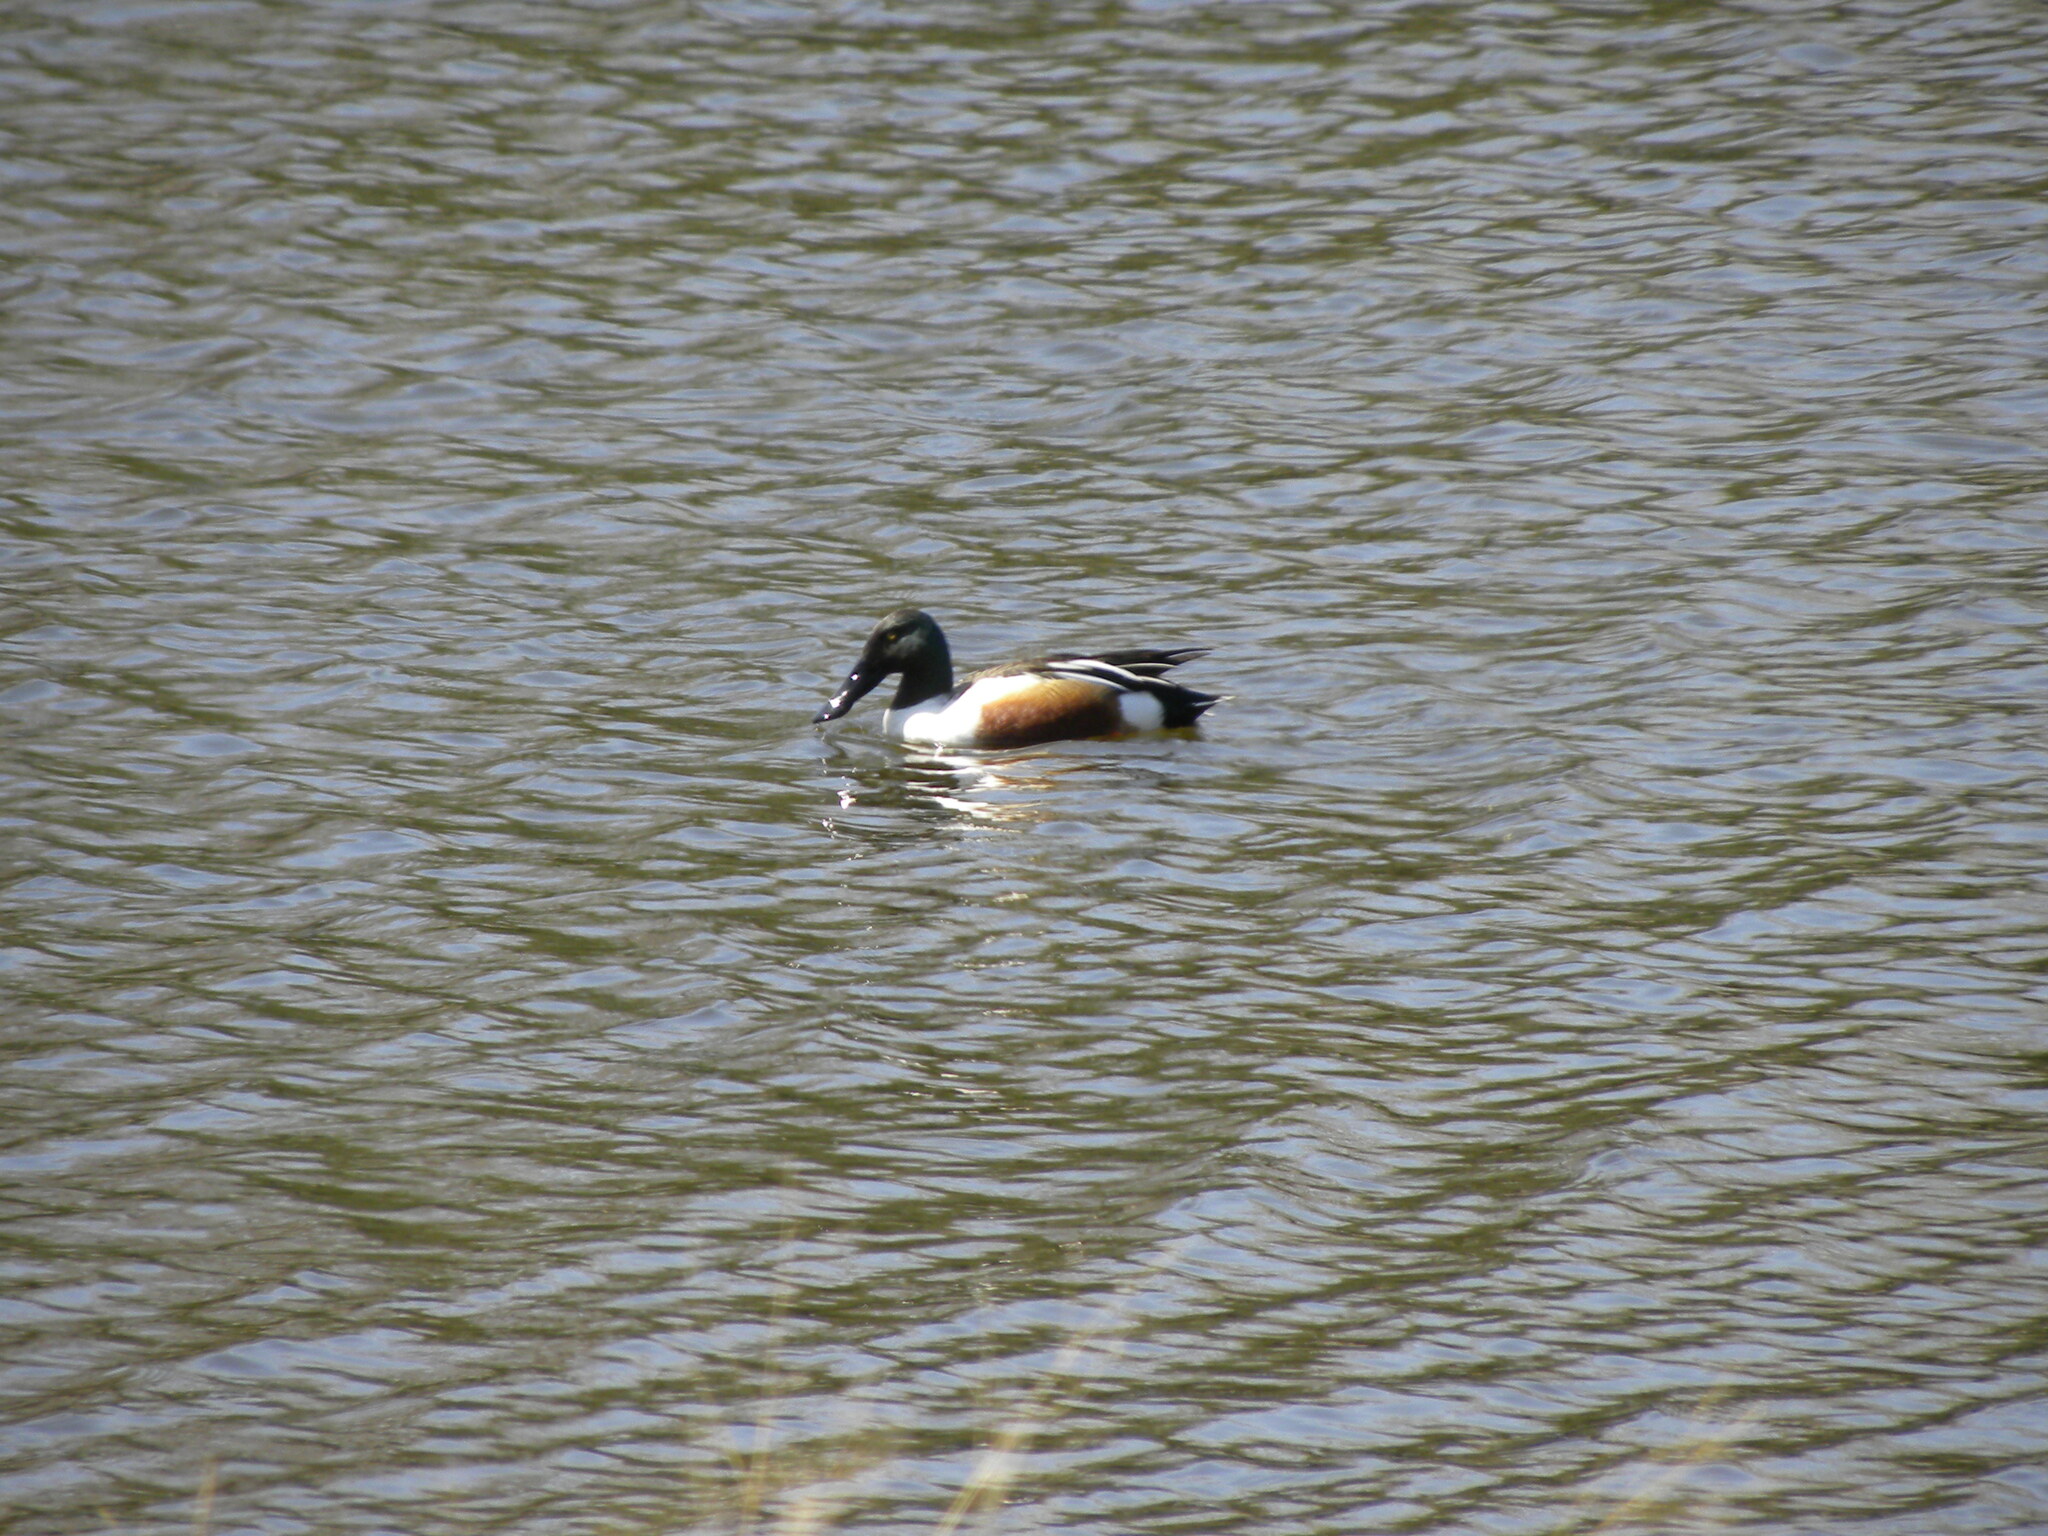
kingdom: Animalia
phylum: Chordata
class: Aves
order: Anseriformes
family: Anatidae
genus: Spatula
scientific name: Spatula clypeata
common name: Northern shoveler
